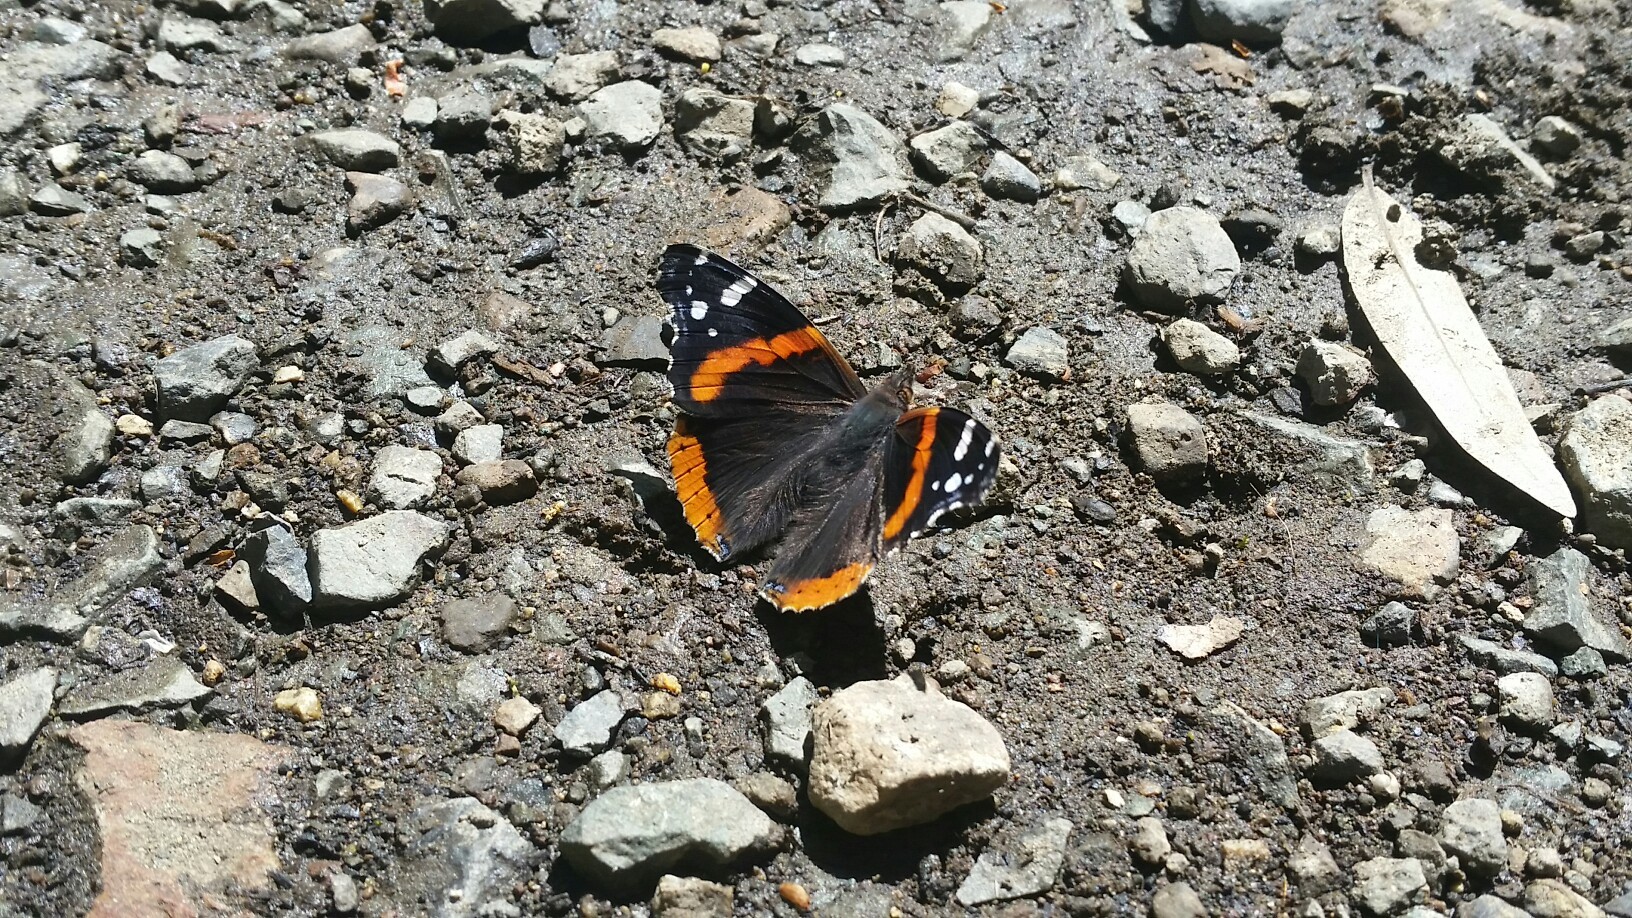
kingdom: Animalia
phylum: Arthropoda
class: Insecta
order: Lepidoptera
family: Nymphalidae
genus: Vanessa
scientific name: Vanessa atalanta
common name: Red admiral
